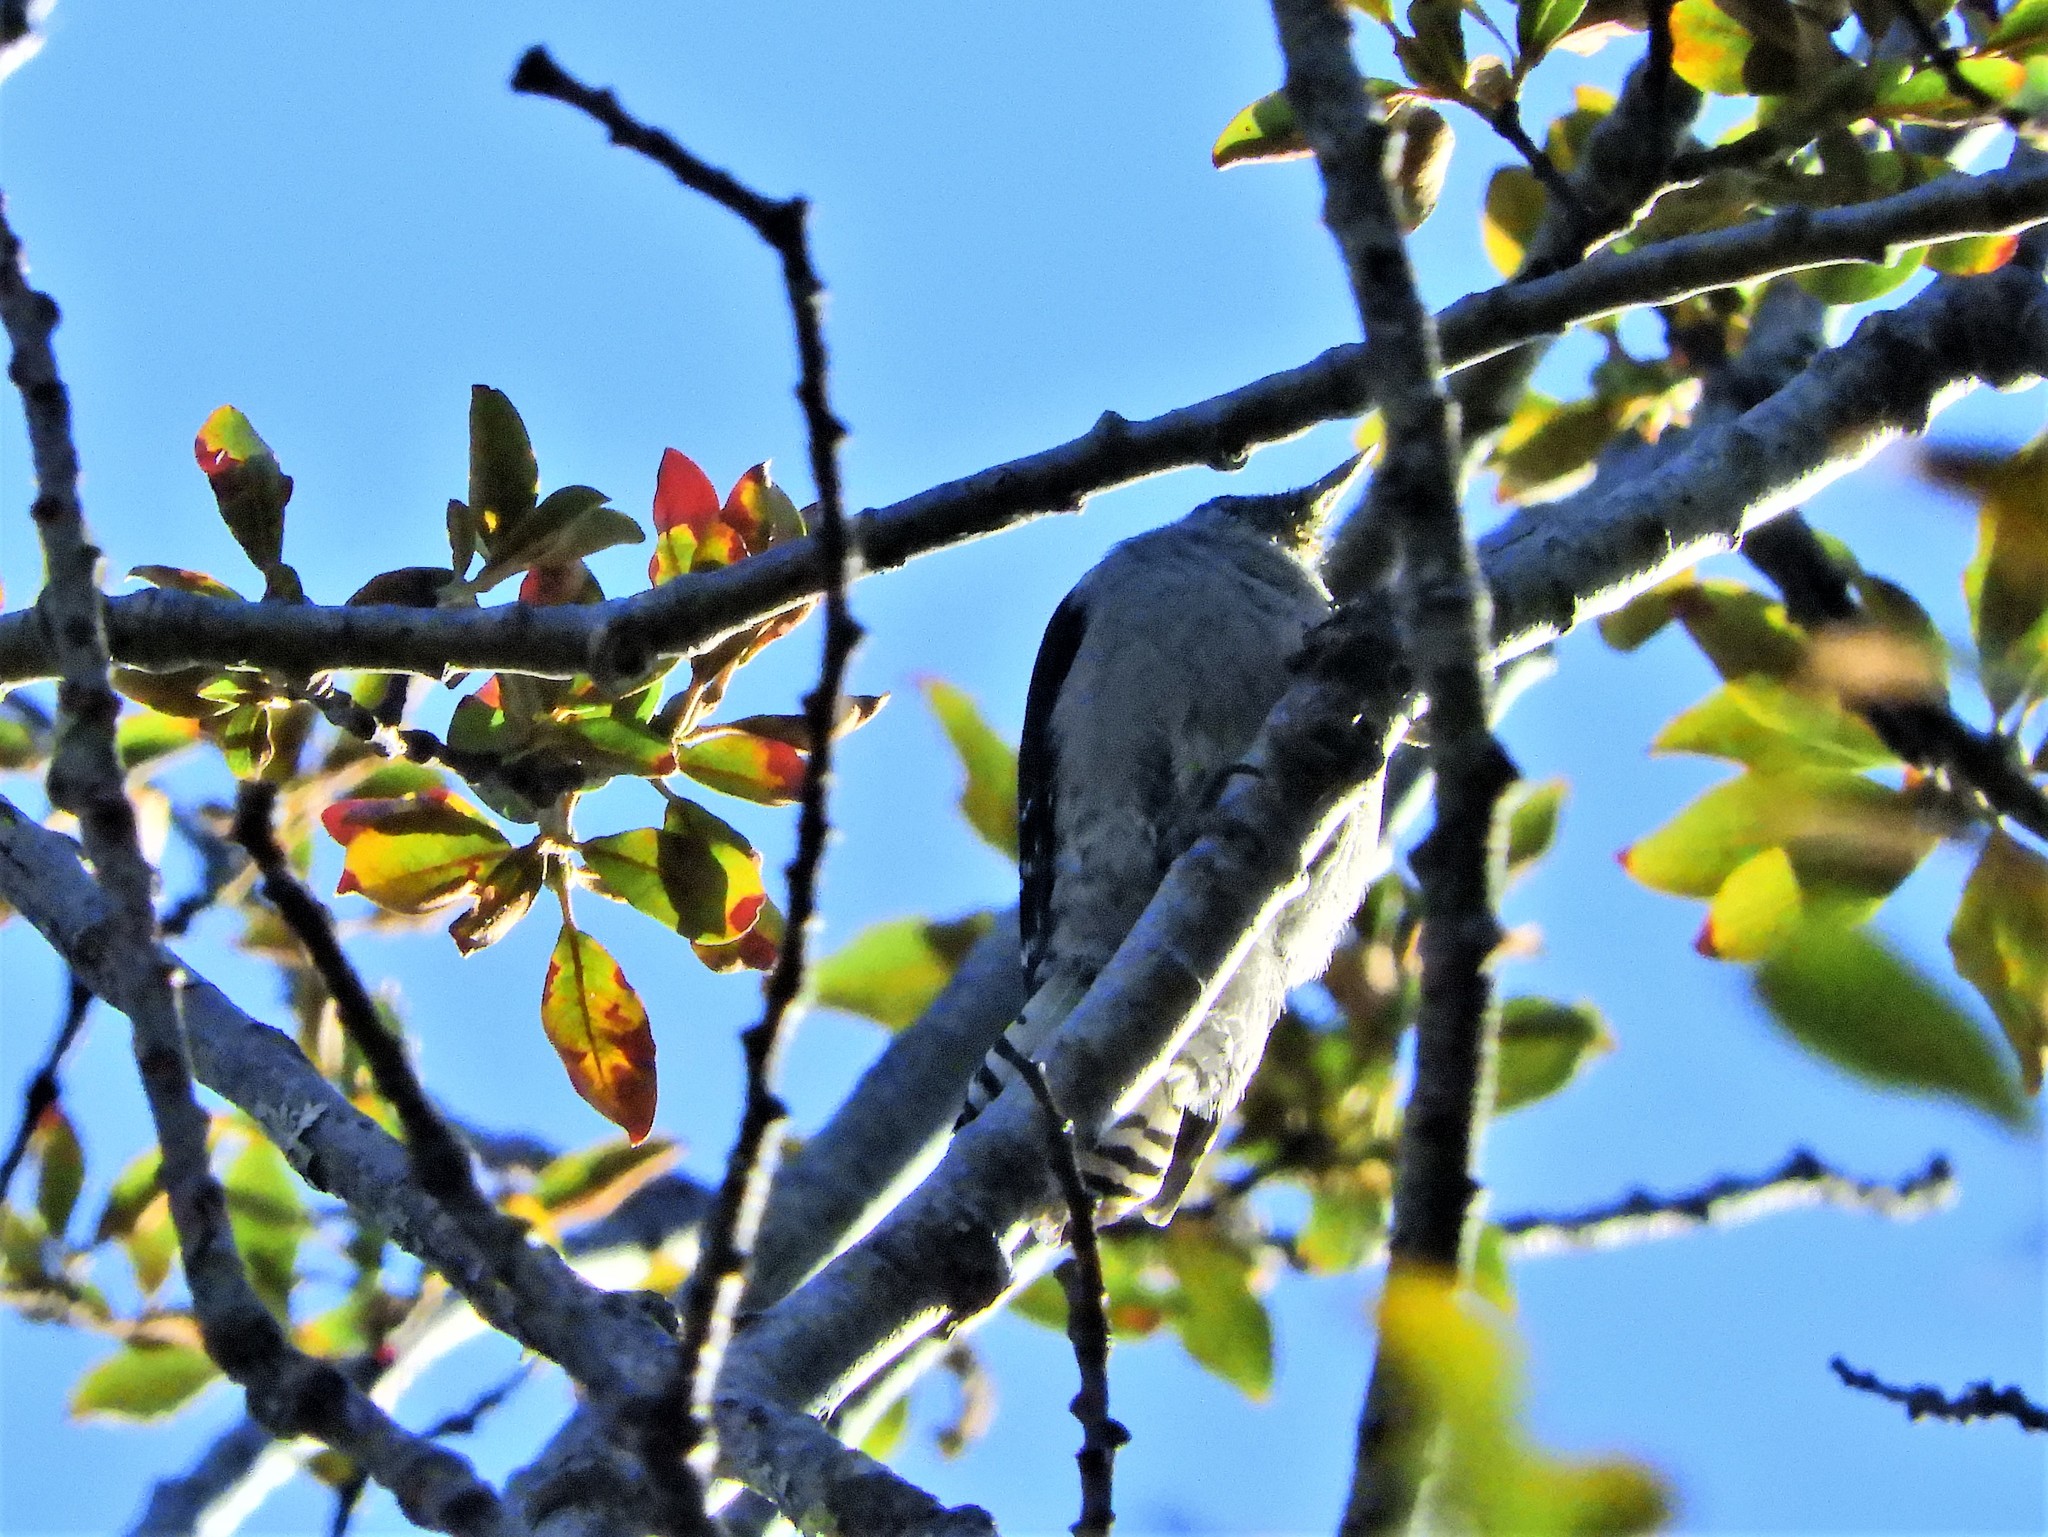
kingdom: Animalia
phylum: Chordata
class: Aves
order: Piciformes
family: Picidae
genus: Dryobates
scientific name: Dryobates pubescens
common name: Downy woodpecker
